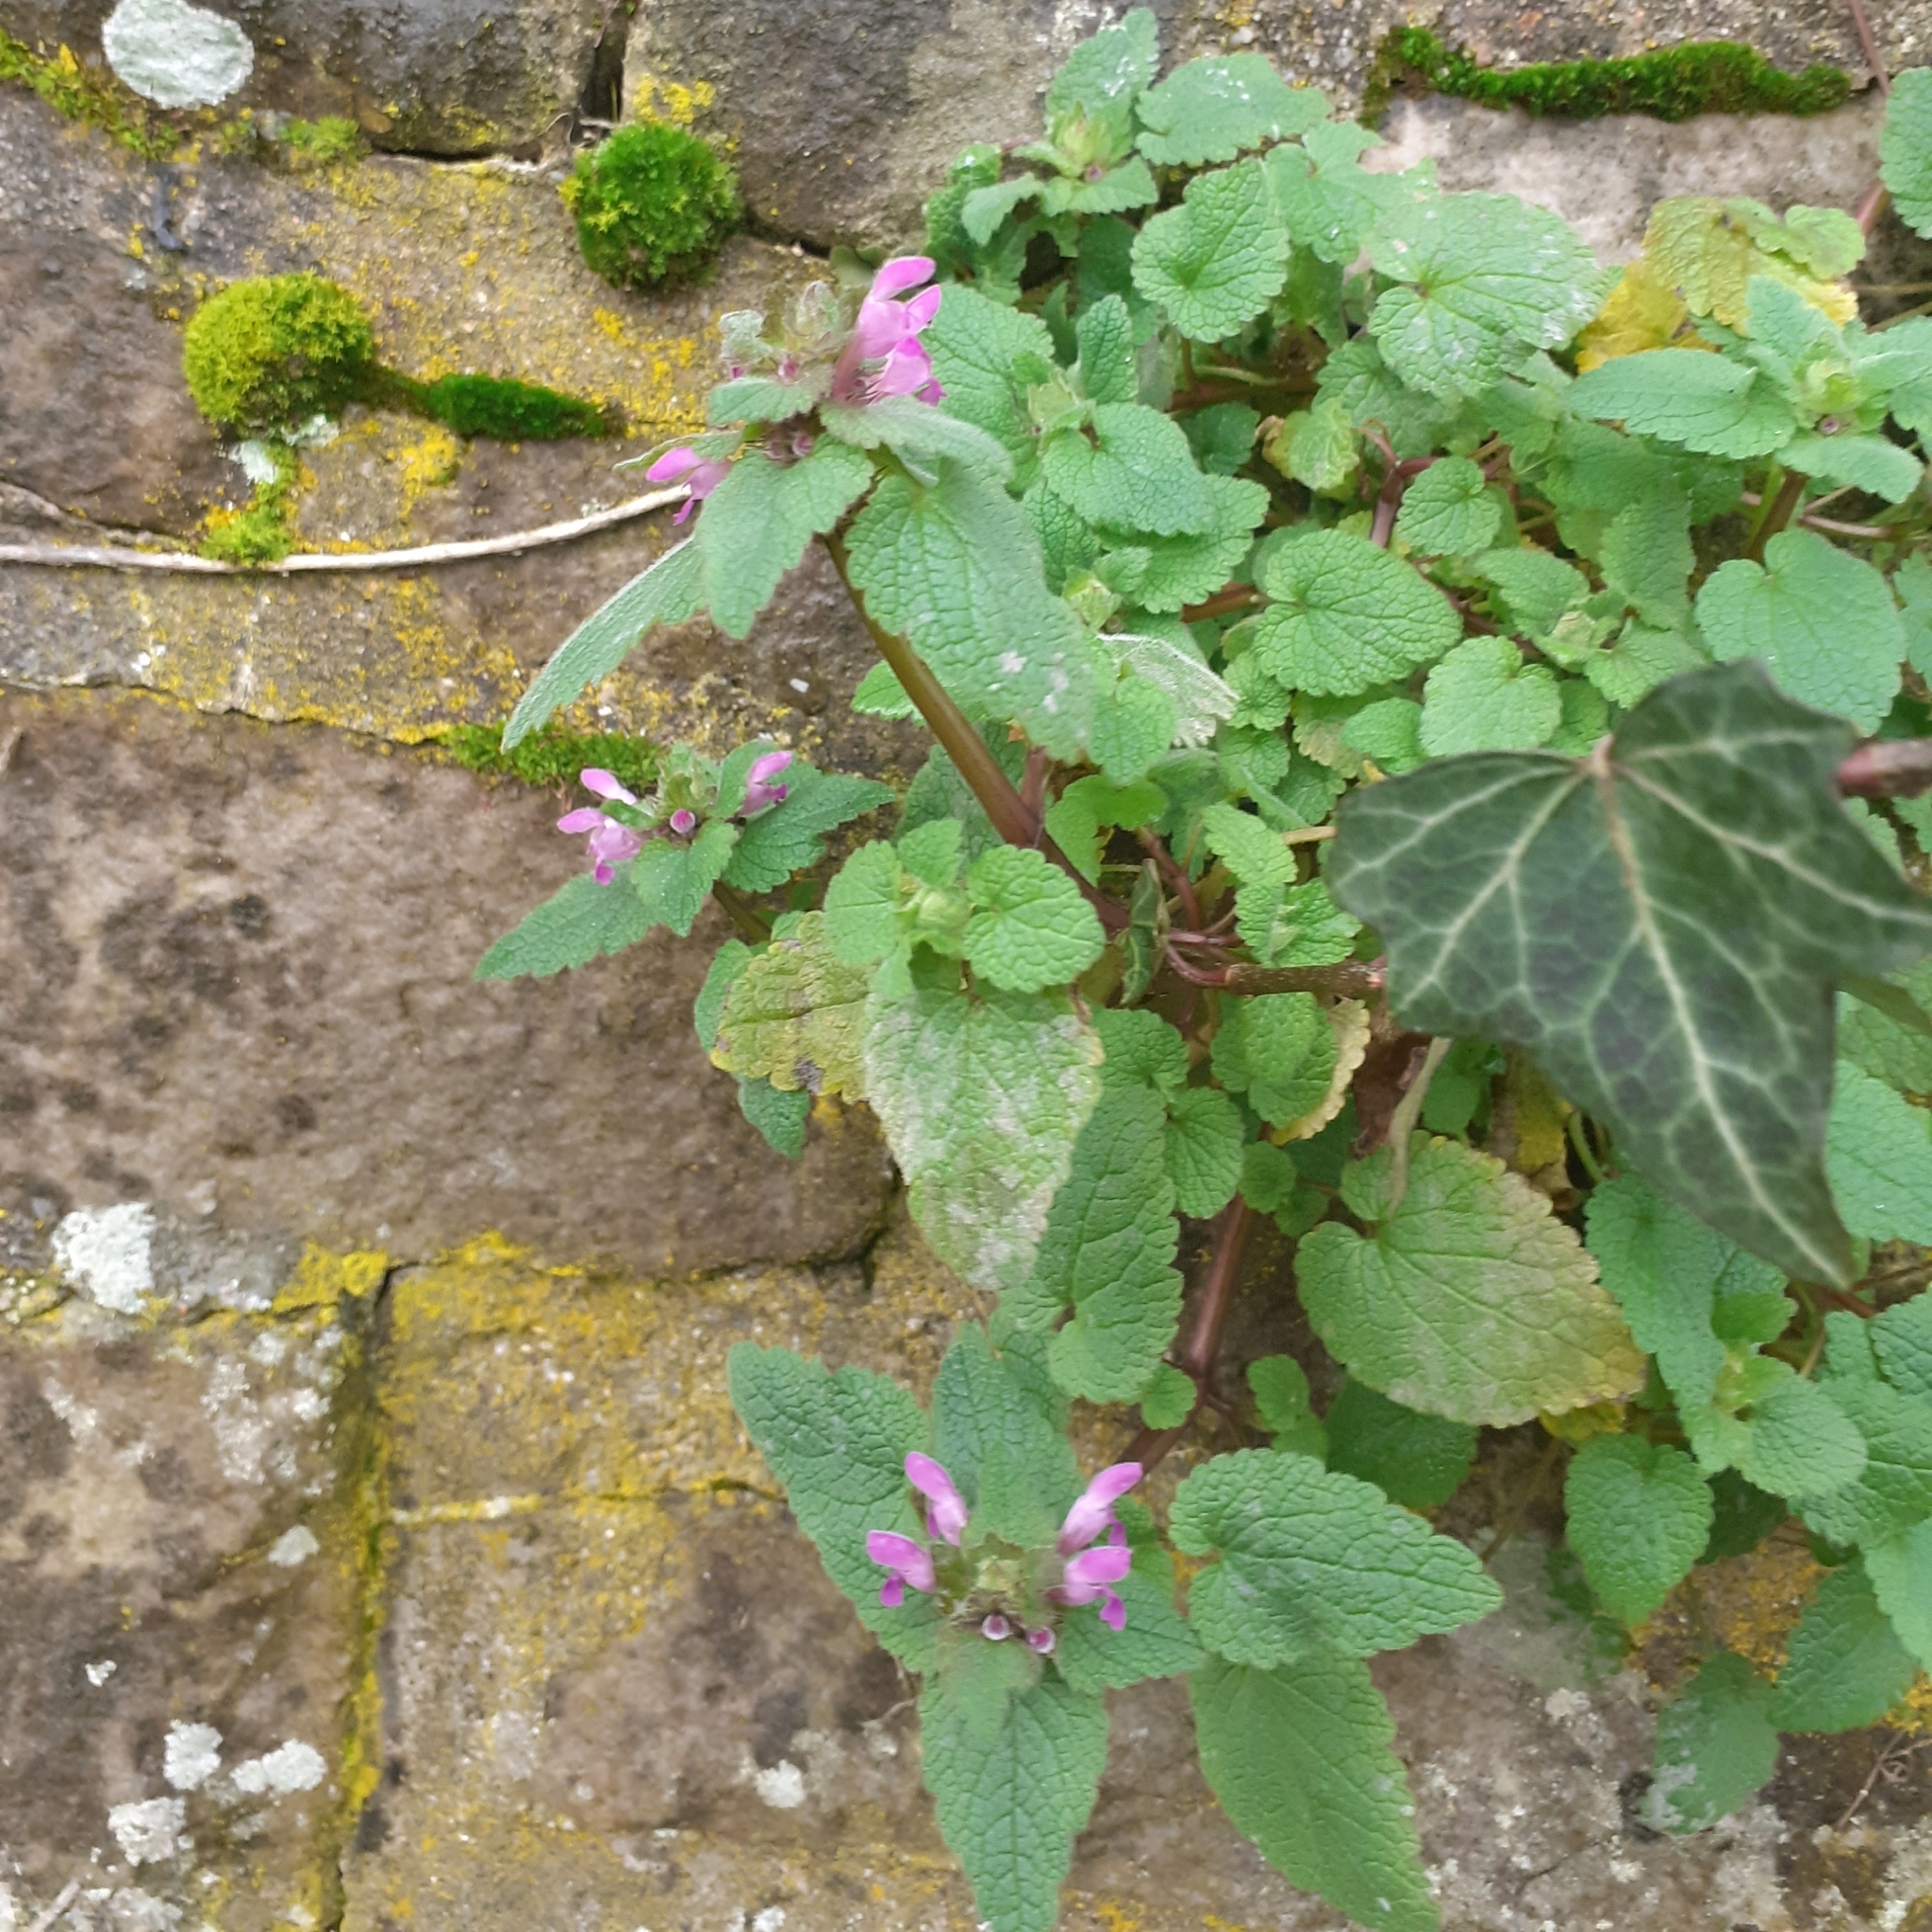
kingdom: Plantae
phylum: Tracheophyta
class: Magnoliopsida
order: Lamiales
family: Lamiaceae
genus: Lamium
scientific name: Lamium purpureum
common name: Red dead-nettle
